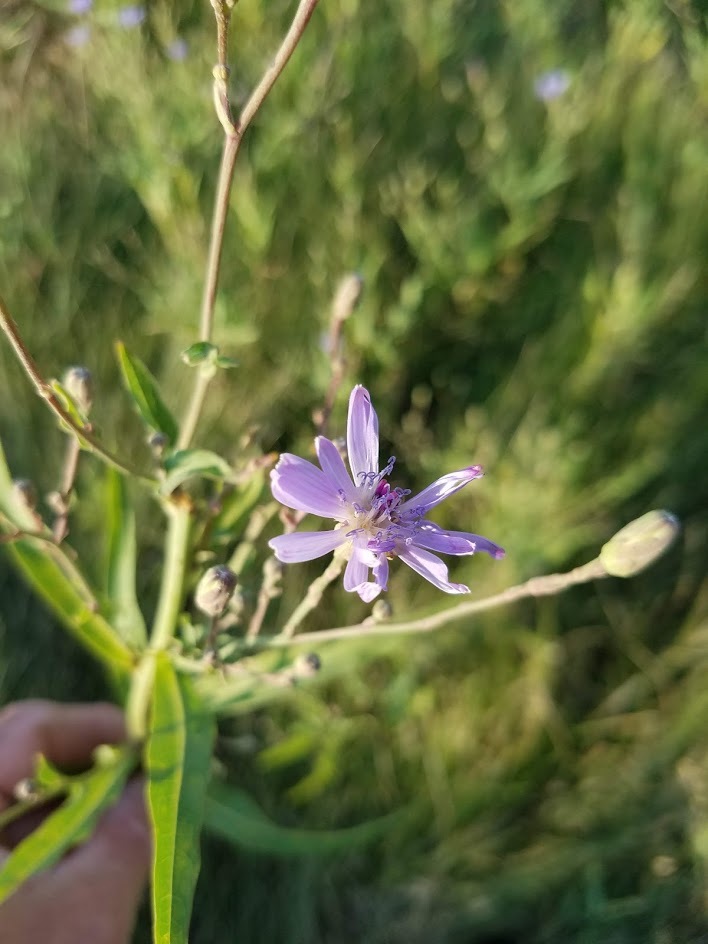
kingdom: Plantae
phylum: Tracheophyta
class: Magnoliopsida
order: Asterales
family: Asteraceae
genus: Lactuca
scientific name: Lactuca pulchella
